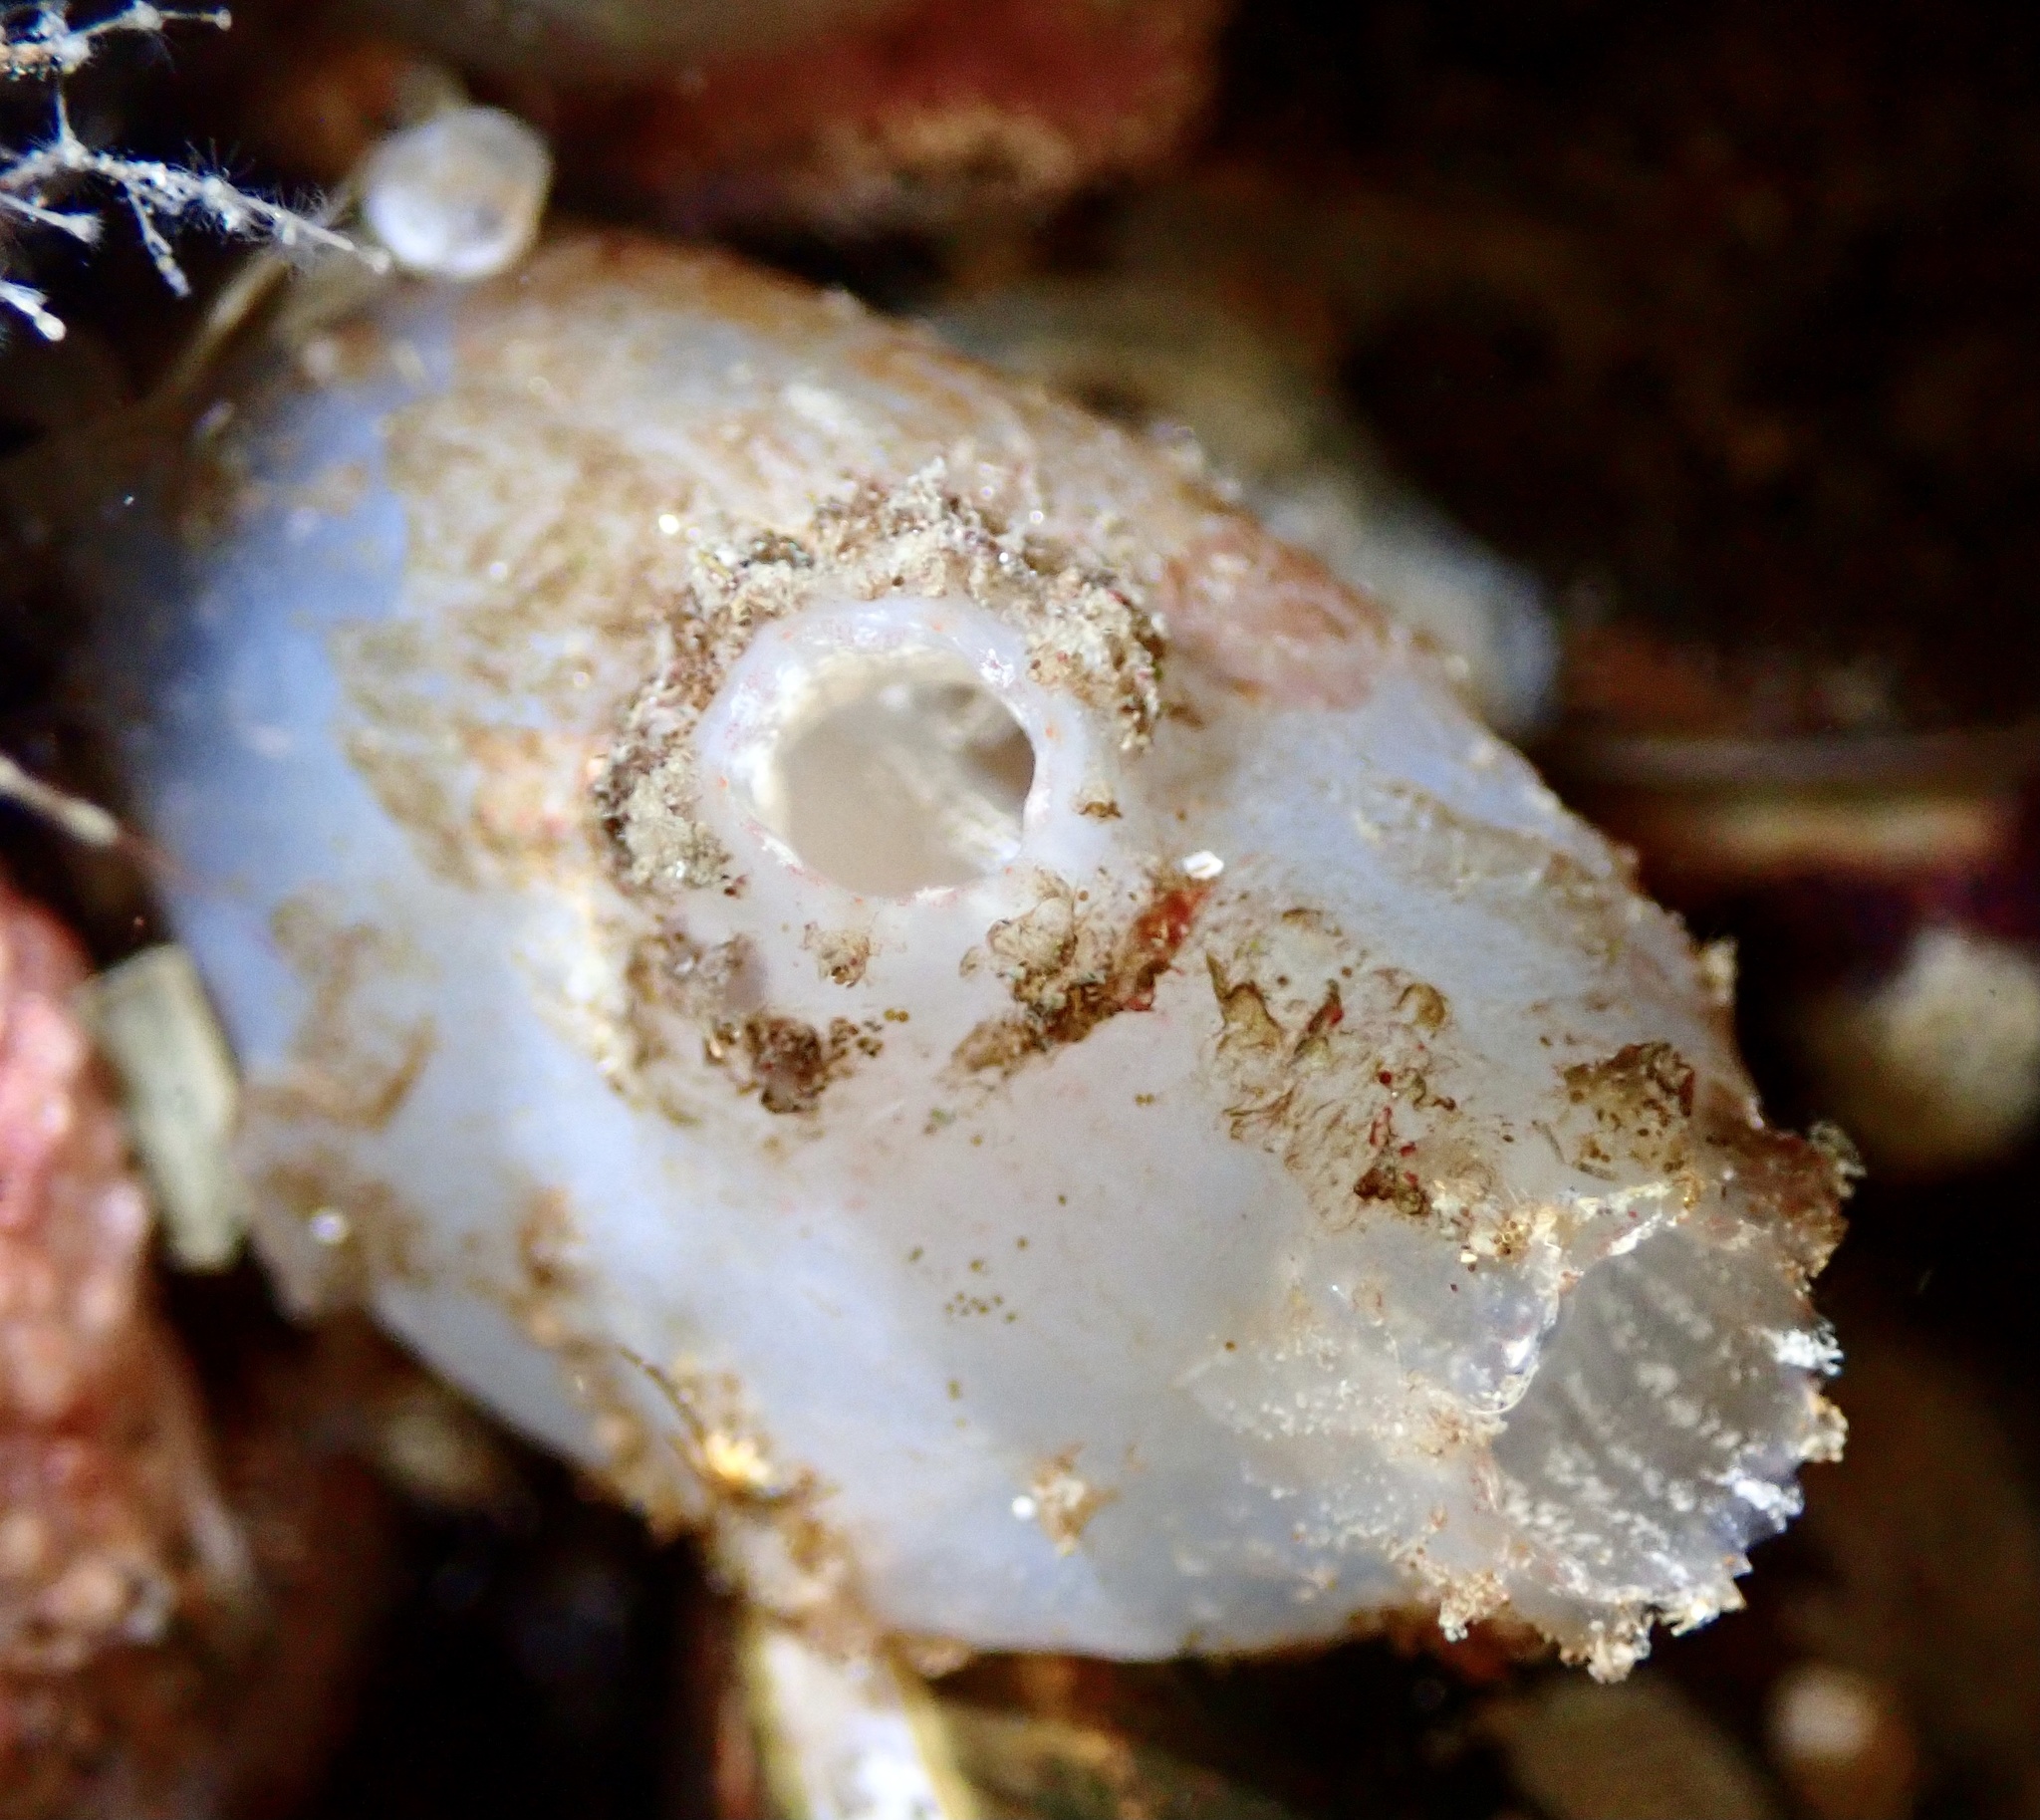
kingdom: Animalia
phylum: Chordata
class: Ascidiacea
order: Phlebobranchia
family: Ascidiidae
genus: Ascidiella
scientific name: Ascidiella aspersa
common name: Dirty sea-squirt
